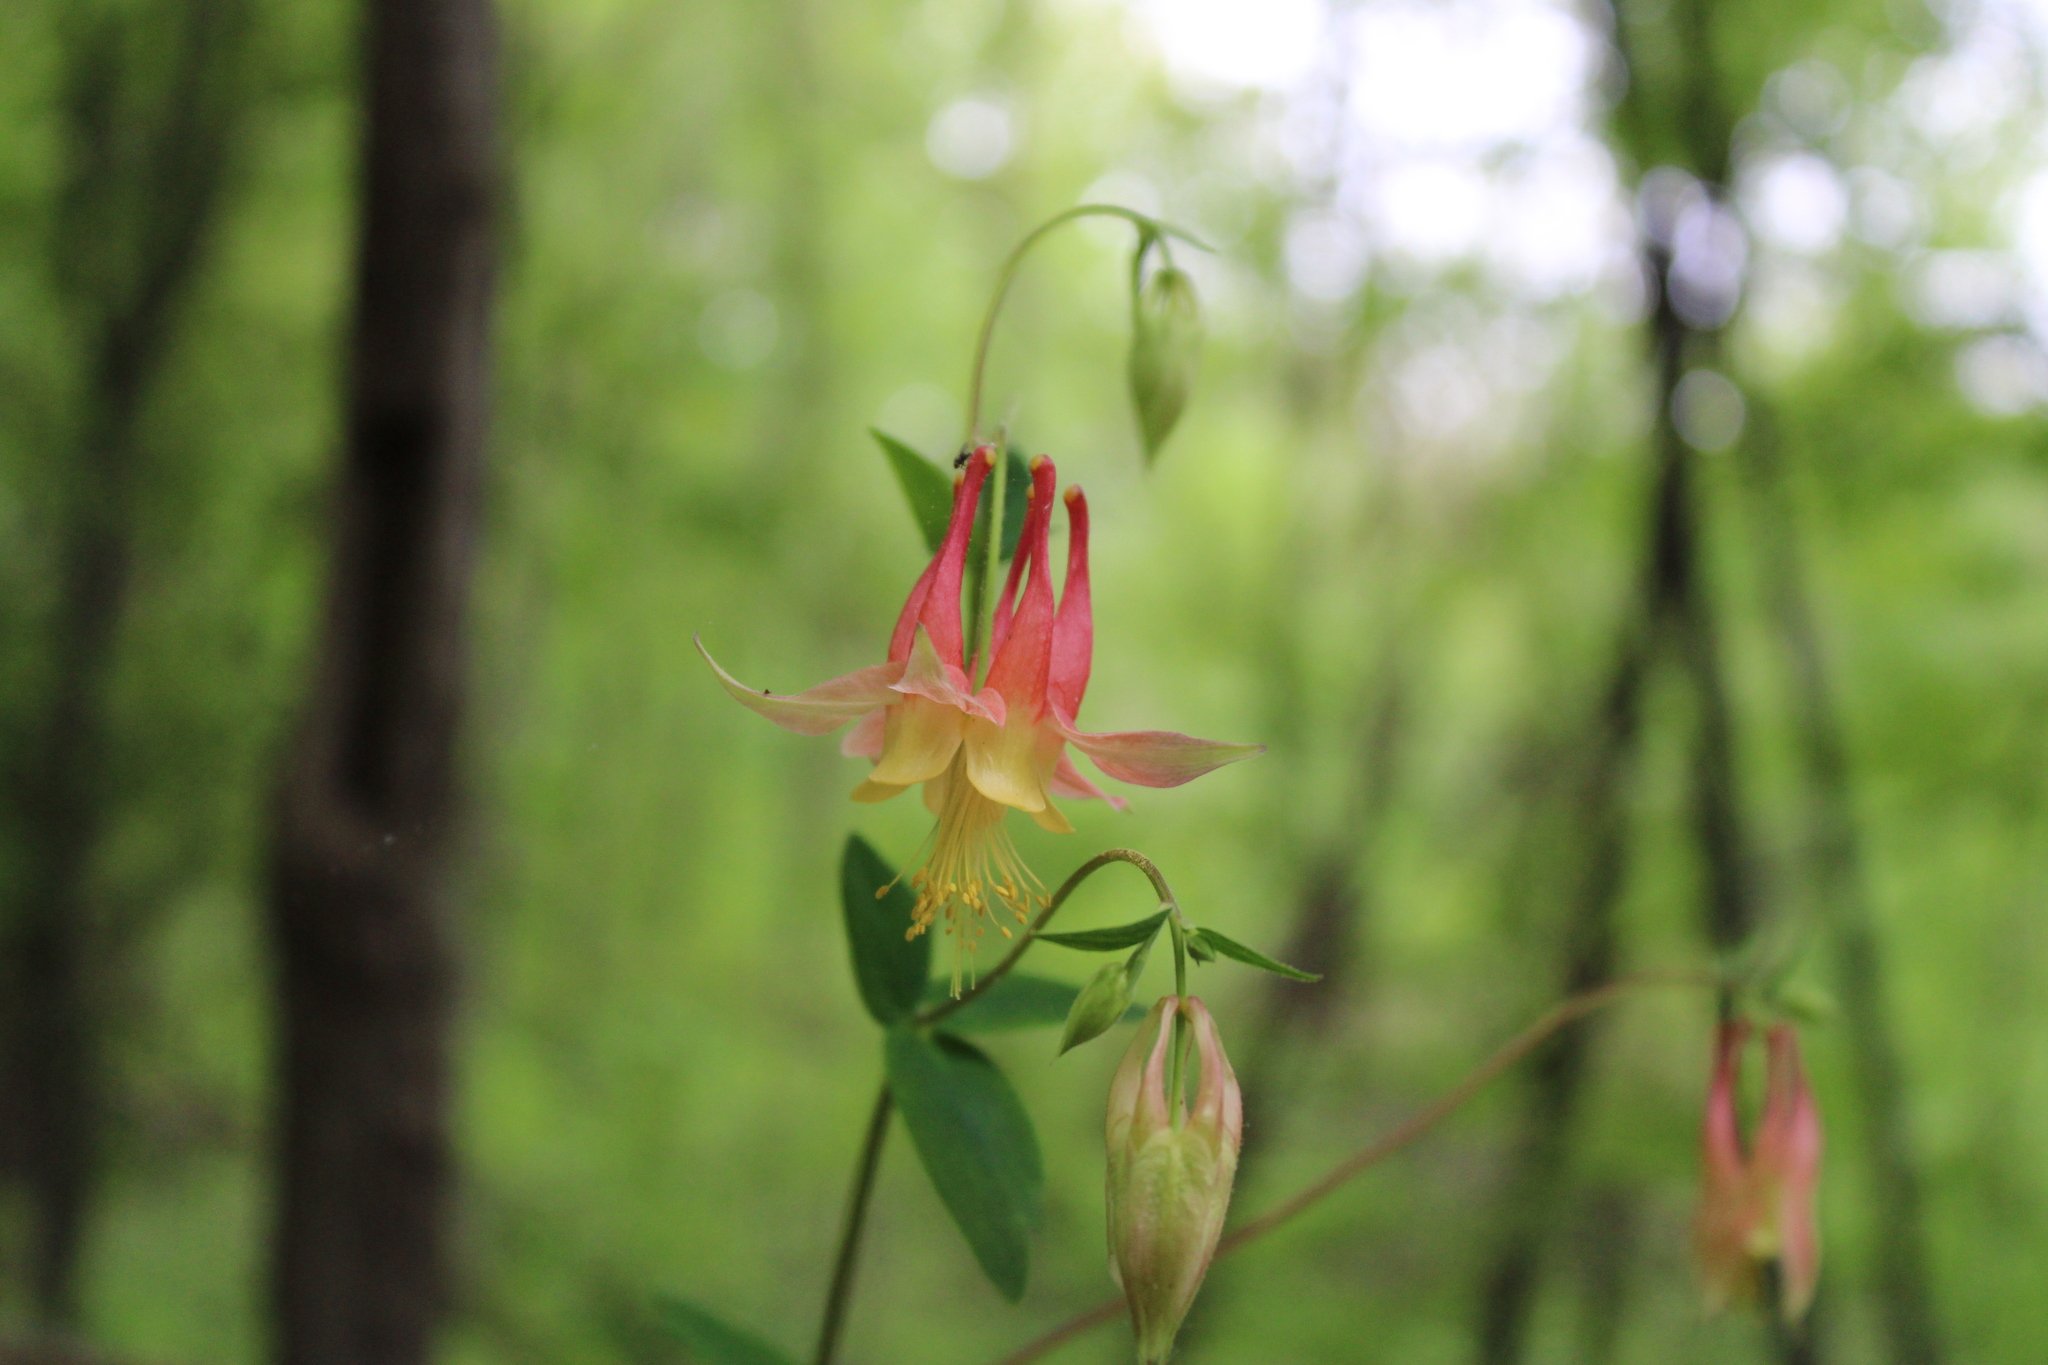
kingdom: Plantae
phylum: Tracheophyta
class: Magnoliopsida
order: Ranunculales
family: Ranunculaceae
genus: Aquilegia
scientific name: Aquilegia canadensis
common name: American columbine
